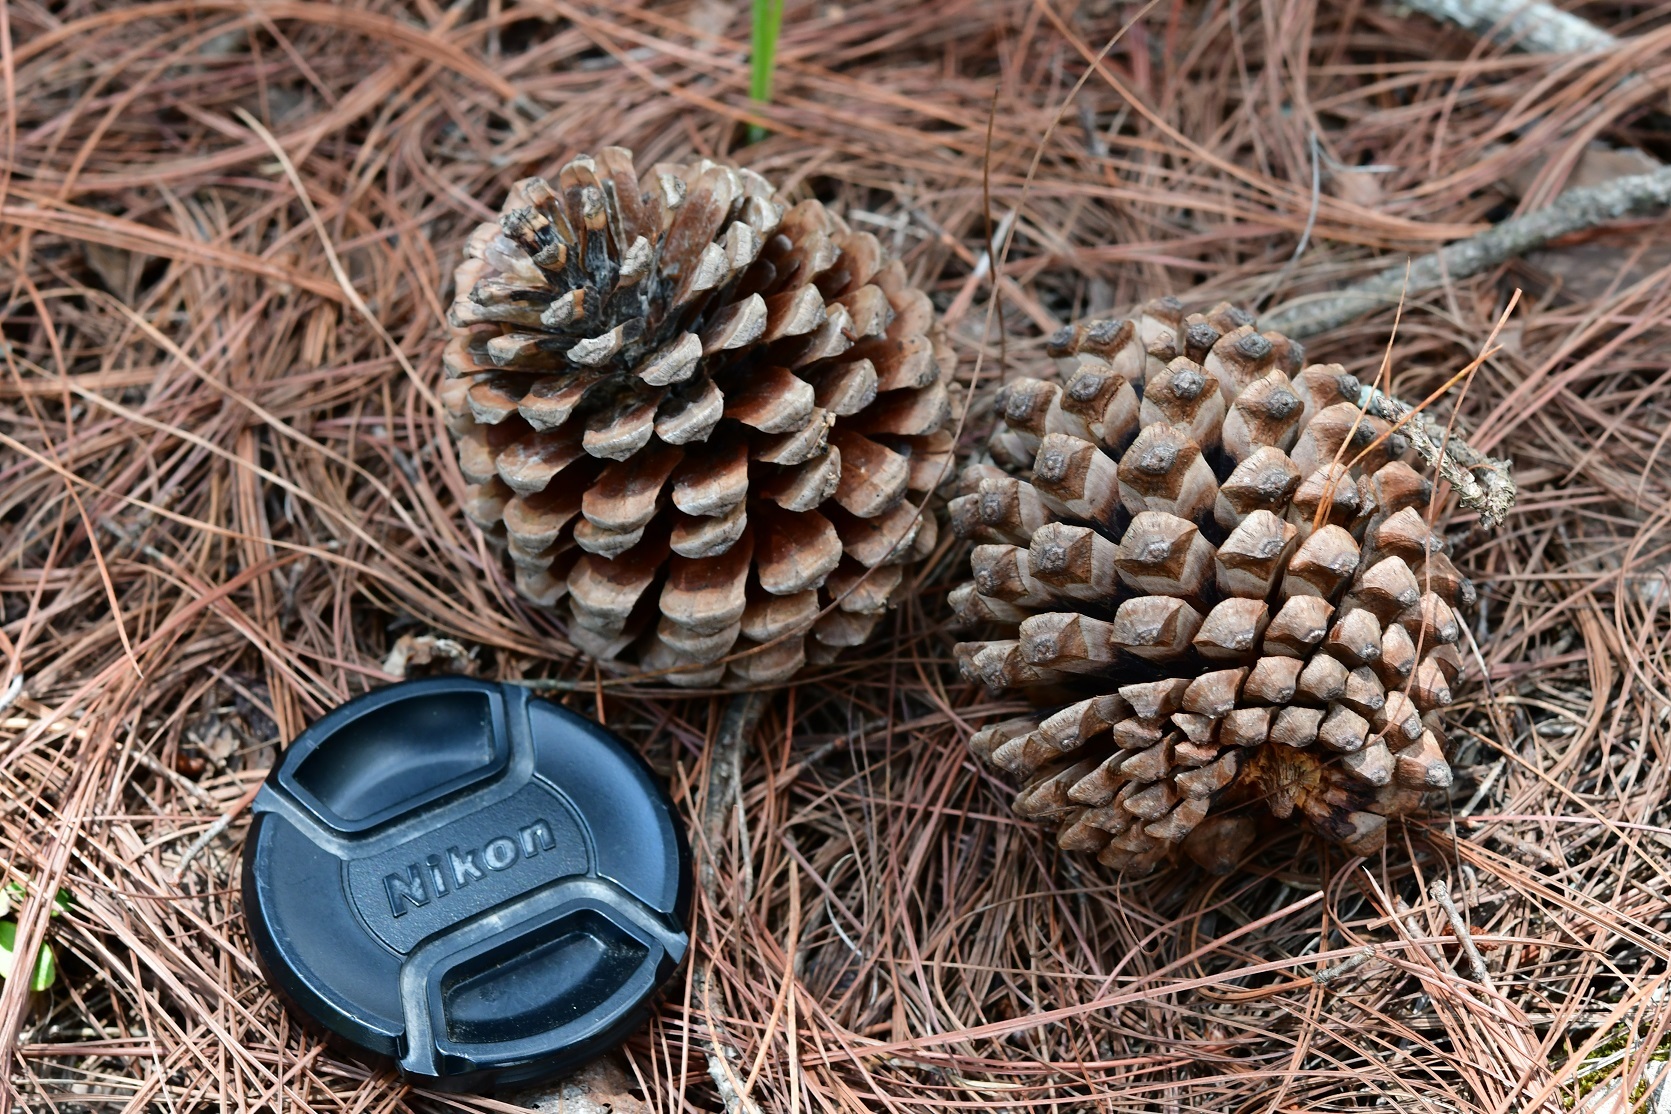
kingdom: Plantae
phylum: Tracheophyta
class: Pinopsida
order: Pinales
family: Pinaceae
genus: Pinus
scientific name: Pinus pseudostrobus
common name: False weymouth pine
